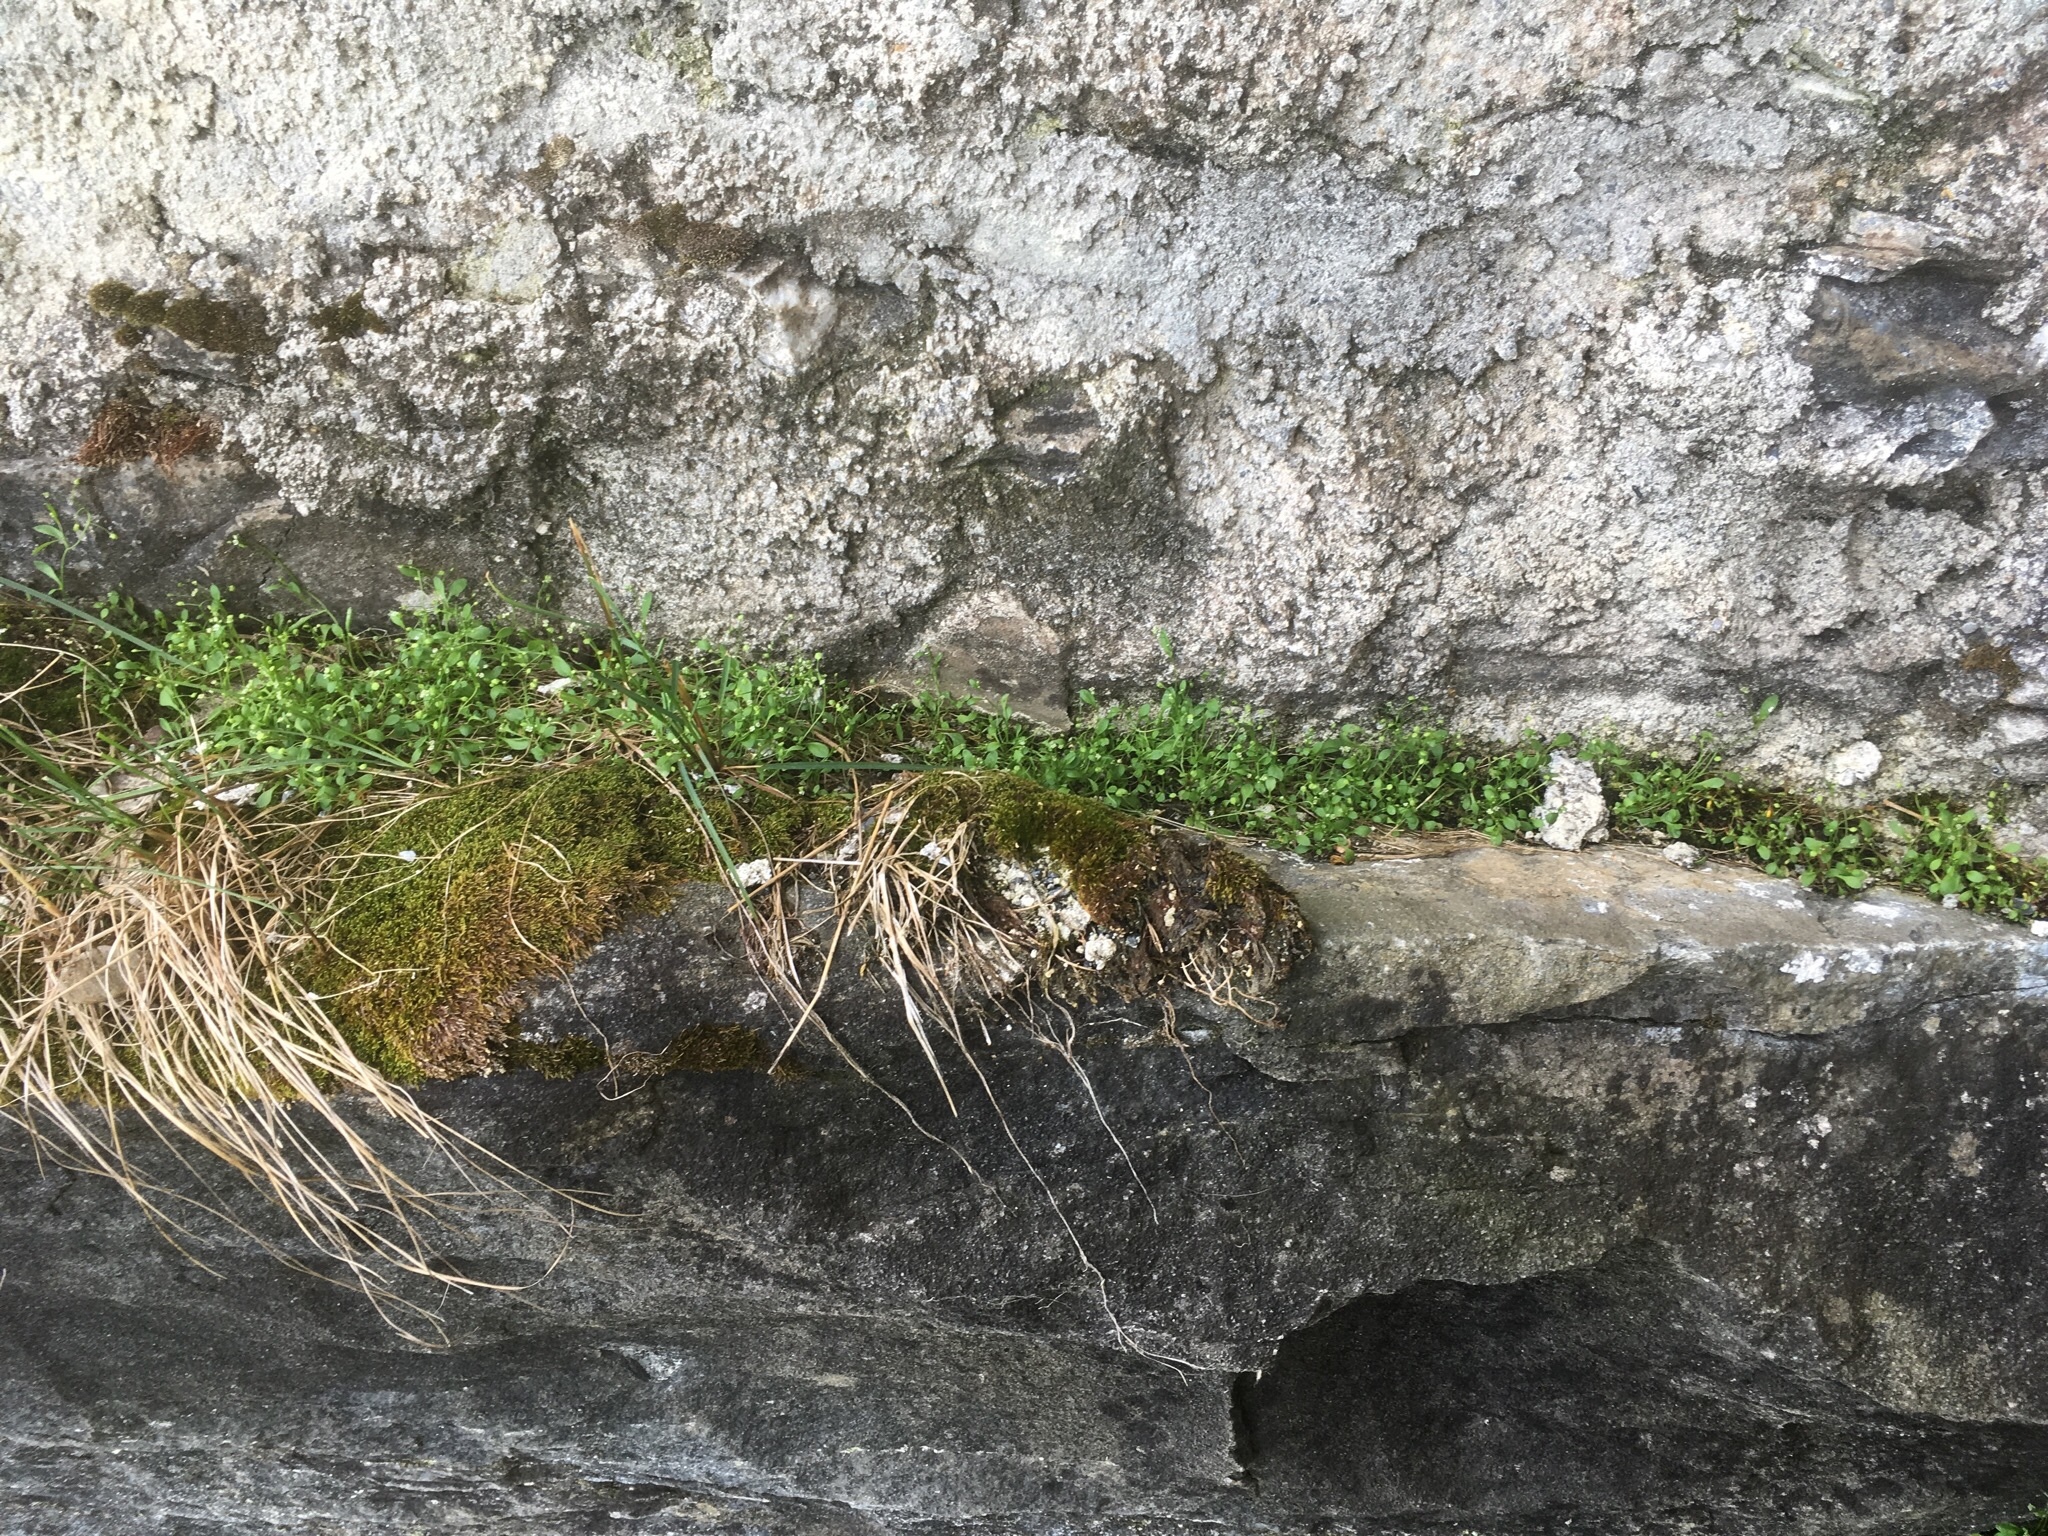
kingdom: Plantae
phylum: Tracheophyta
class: Magnoliopsida
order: Brassicales
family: Brassicaceae
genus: Hornungia
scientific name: Hornungia procumbens
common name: Oval purse
